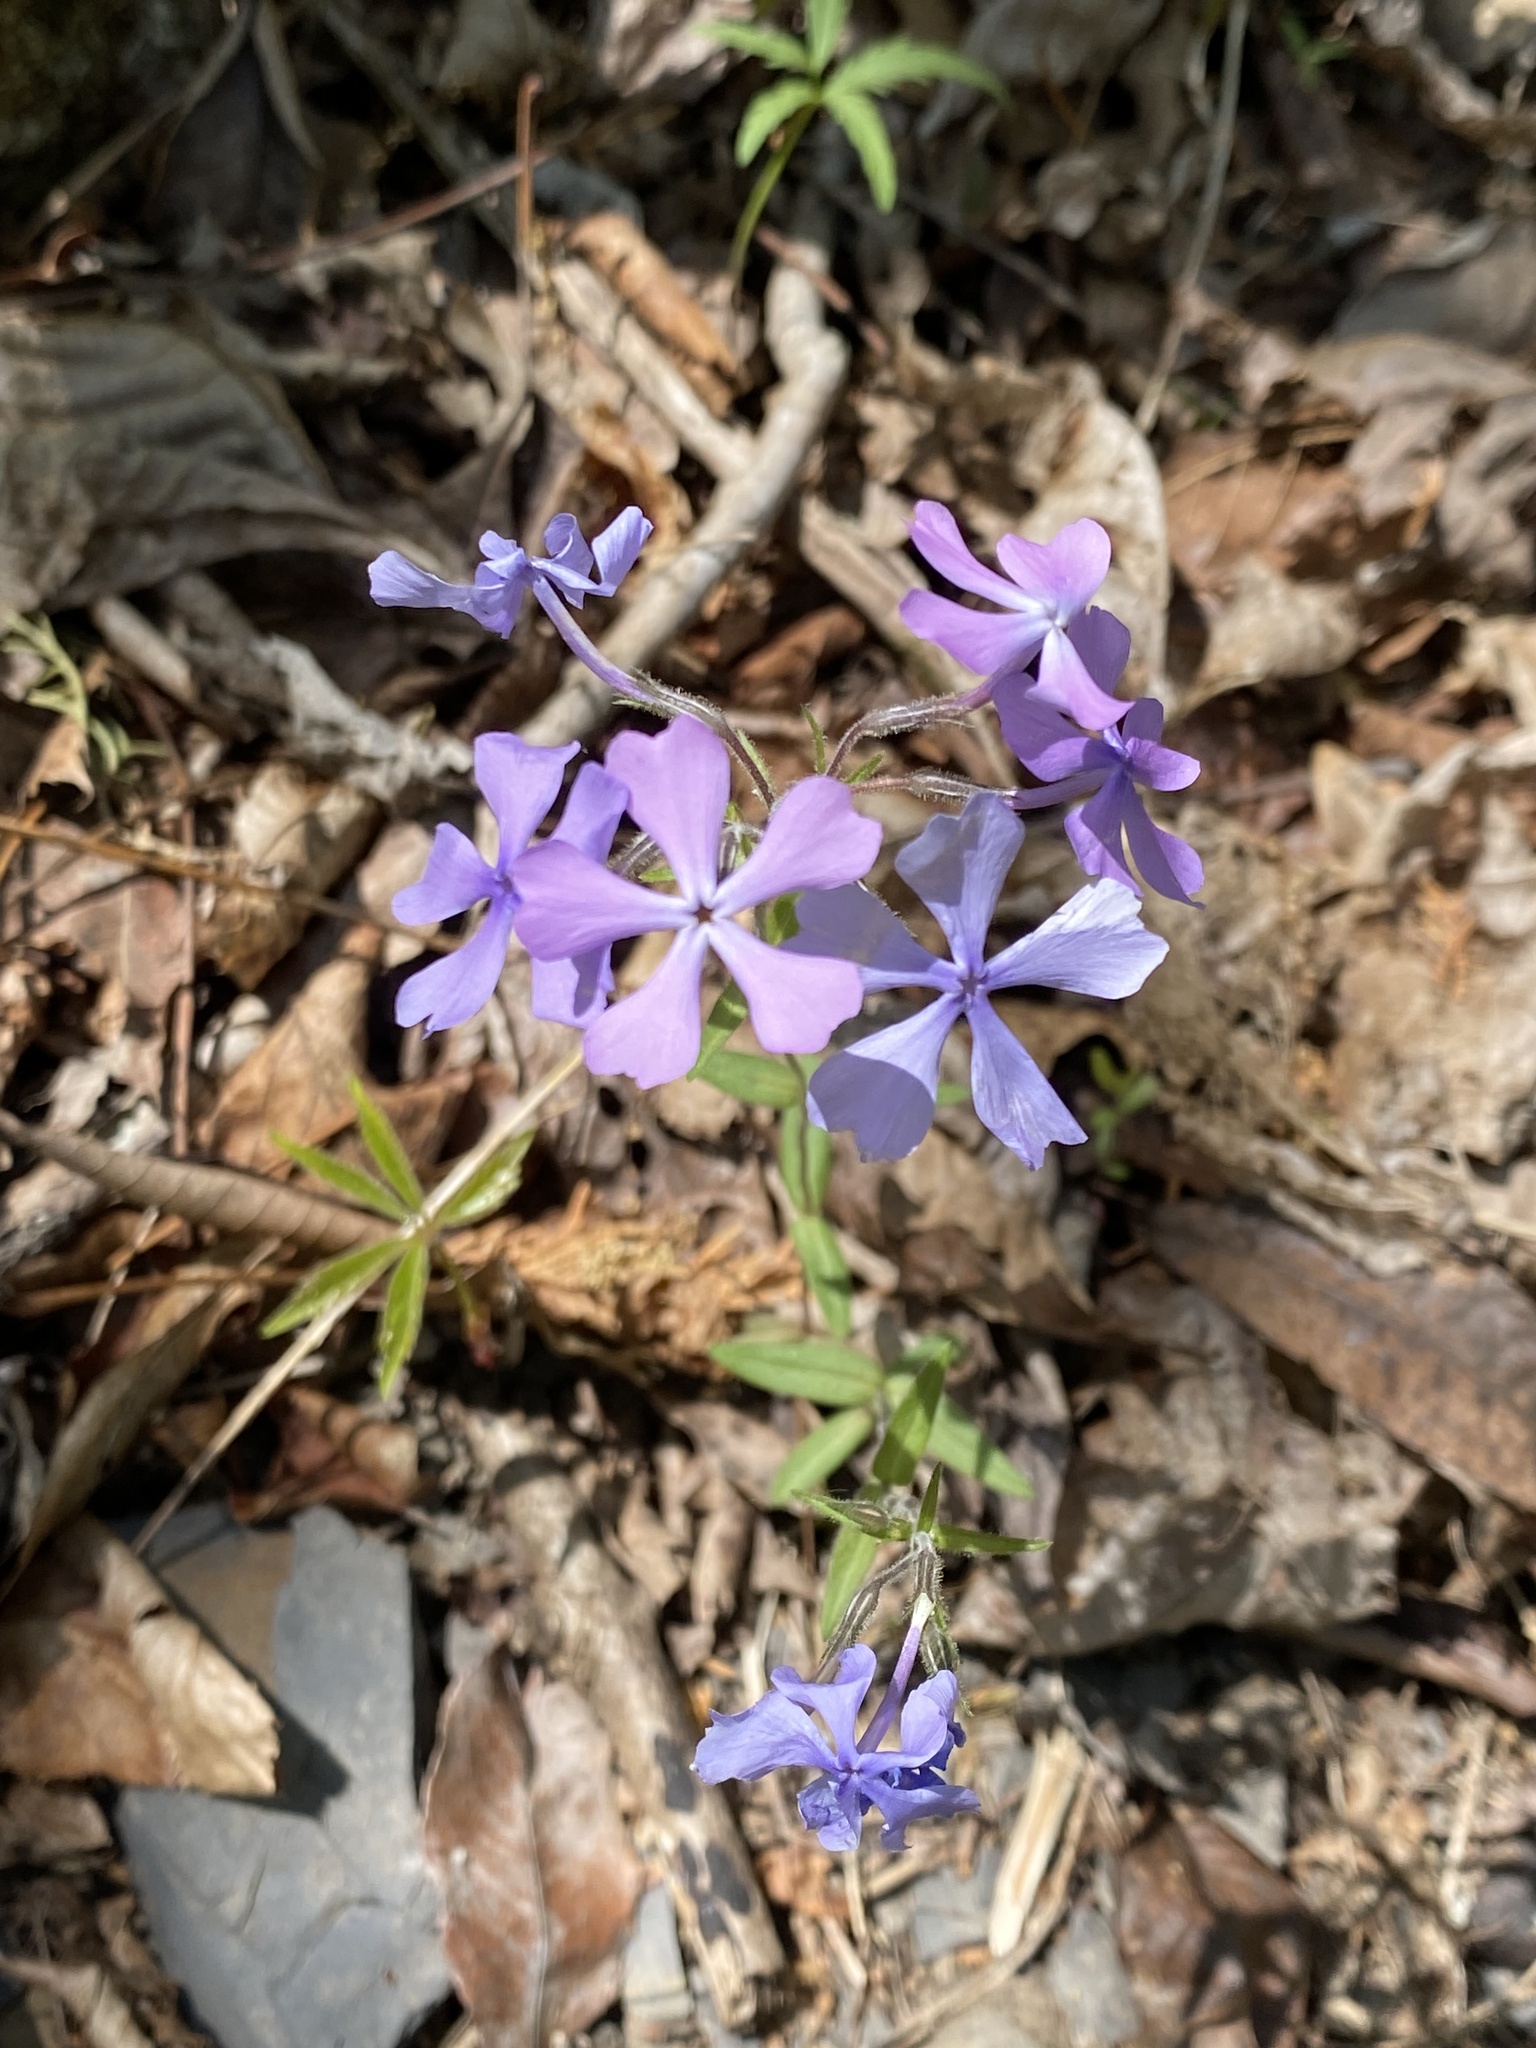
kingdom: Plantae
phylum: Tracheophyta
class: Magnoliopsida
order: Ericales
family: Polemoniaceae
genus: Phlox
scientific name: Phlox divaricata
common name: Blue phlox
